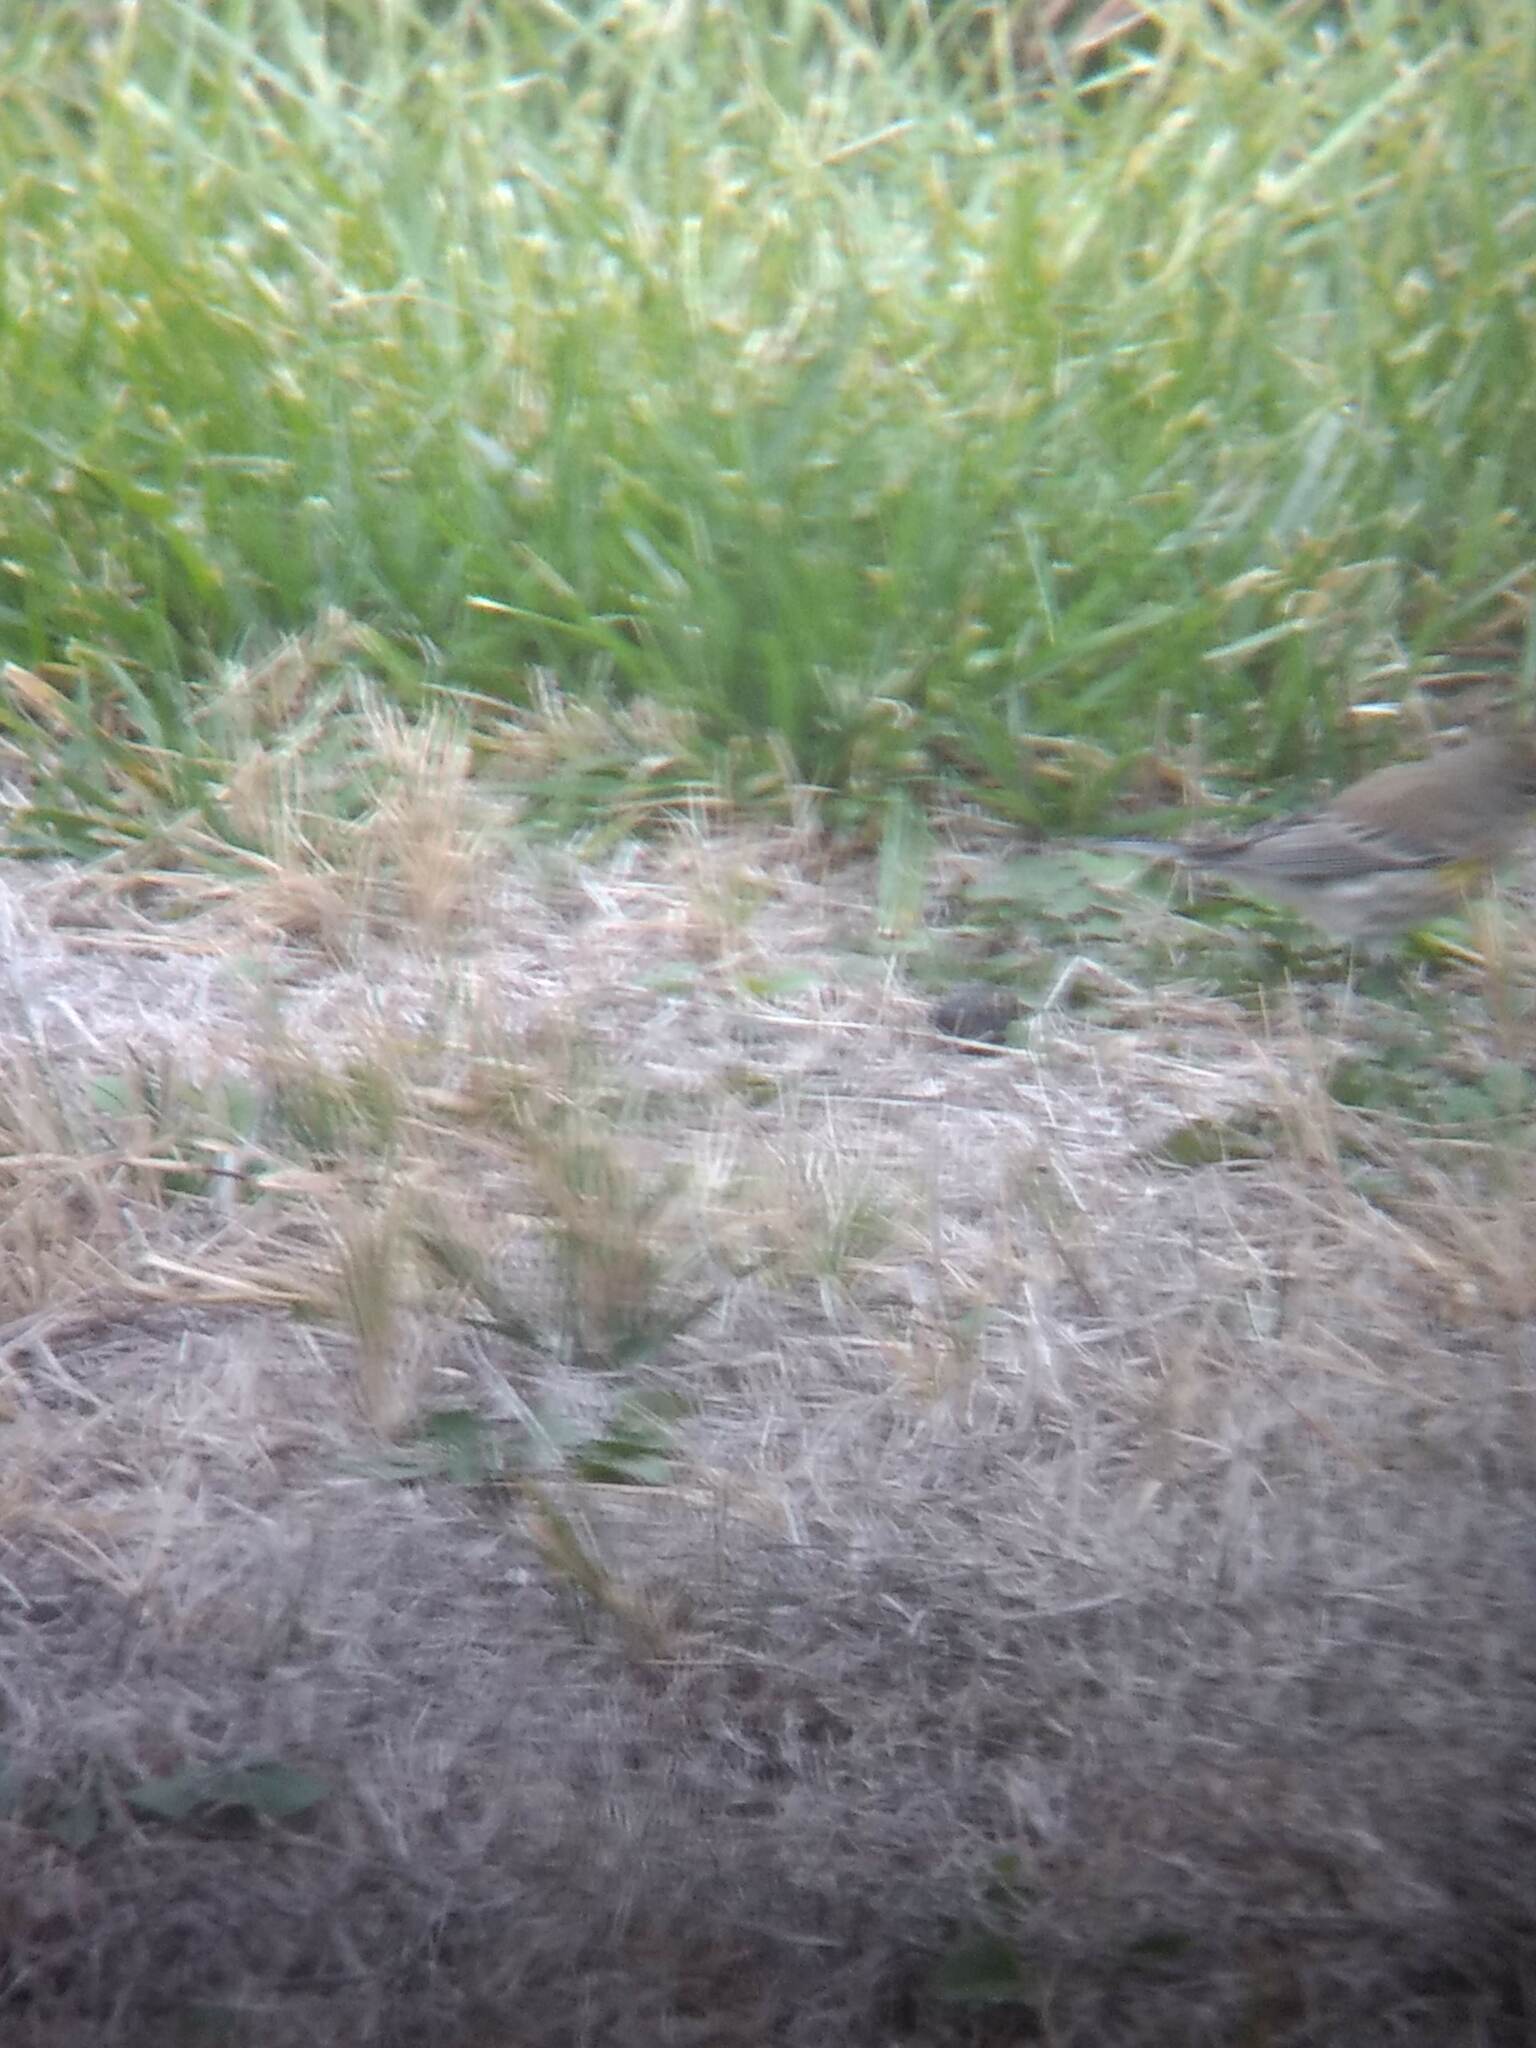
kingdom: Animalia
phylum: Chordata
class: Aves
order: Passeriformes
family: Parulidae
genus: Setophaga
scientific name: Setophaga coronata
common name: Myrtle warbler
